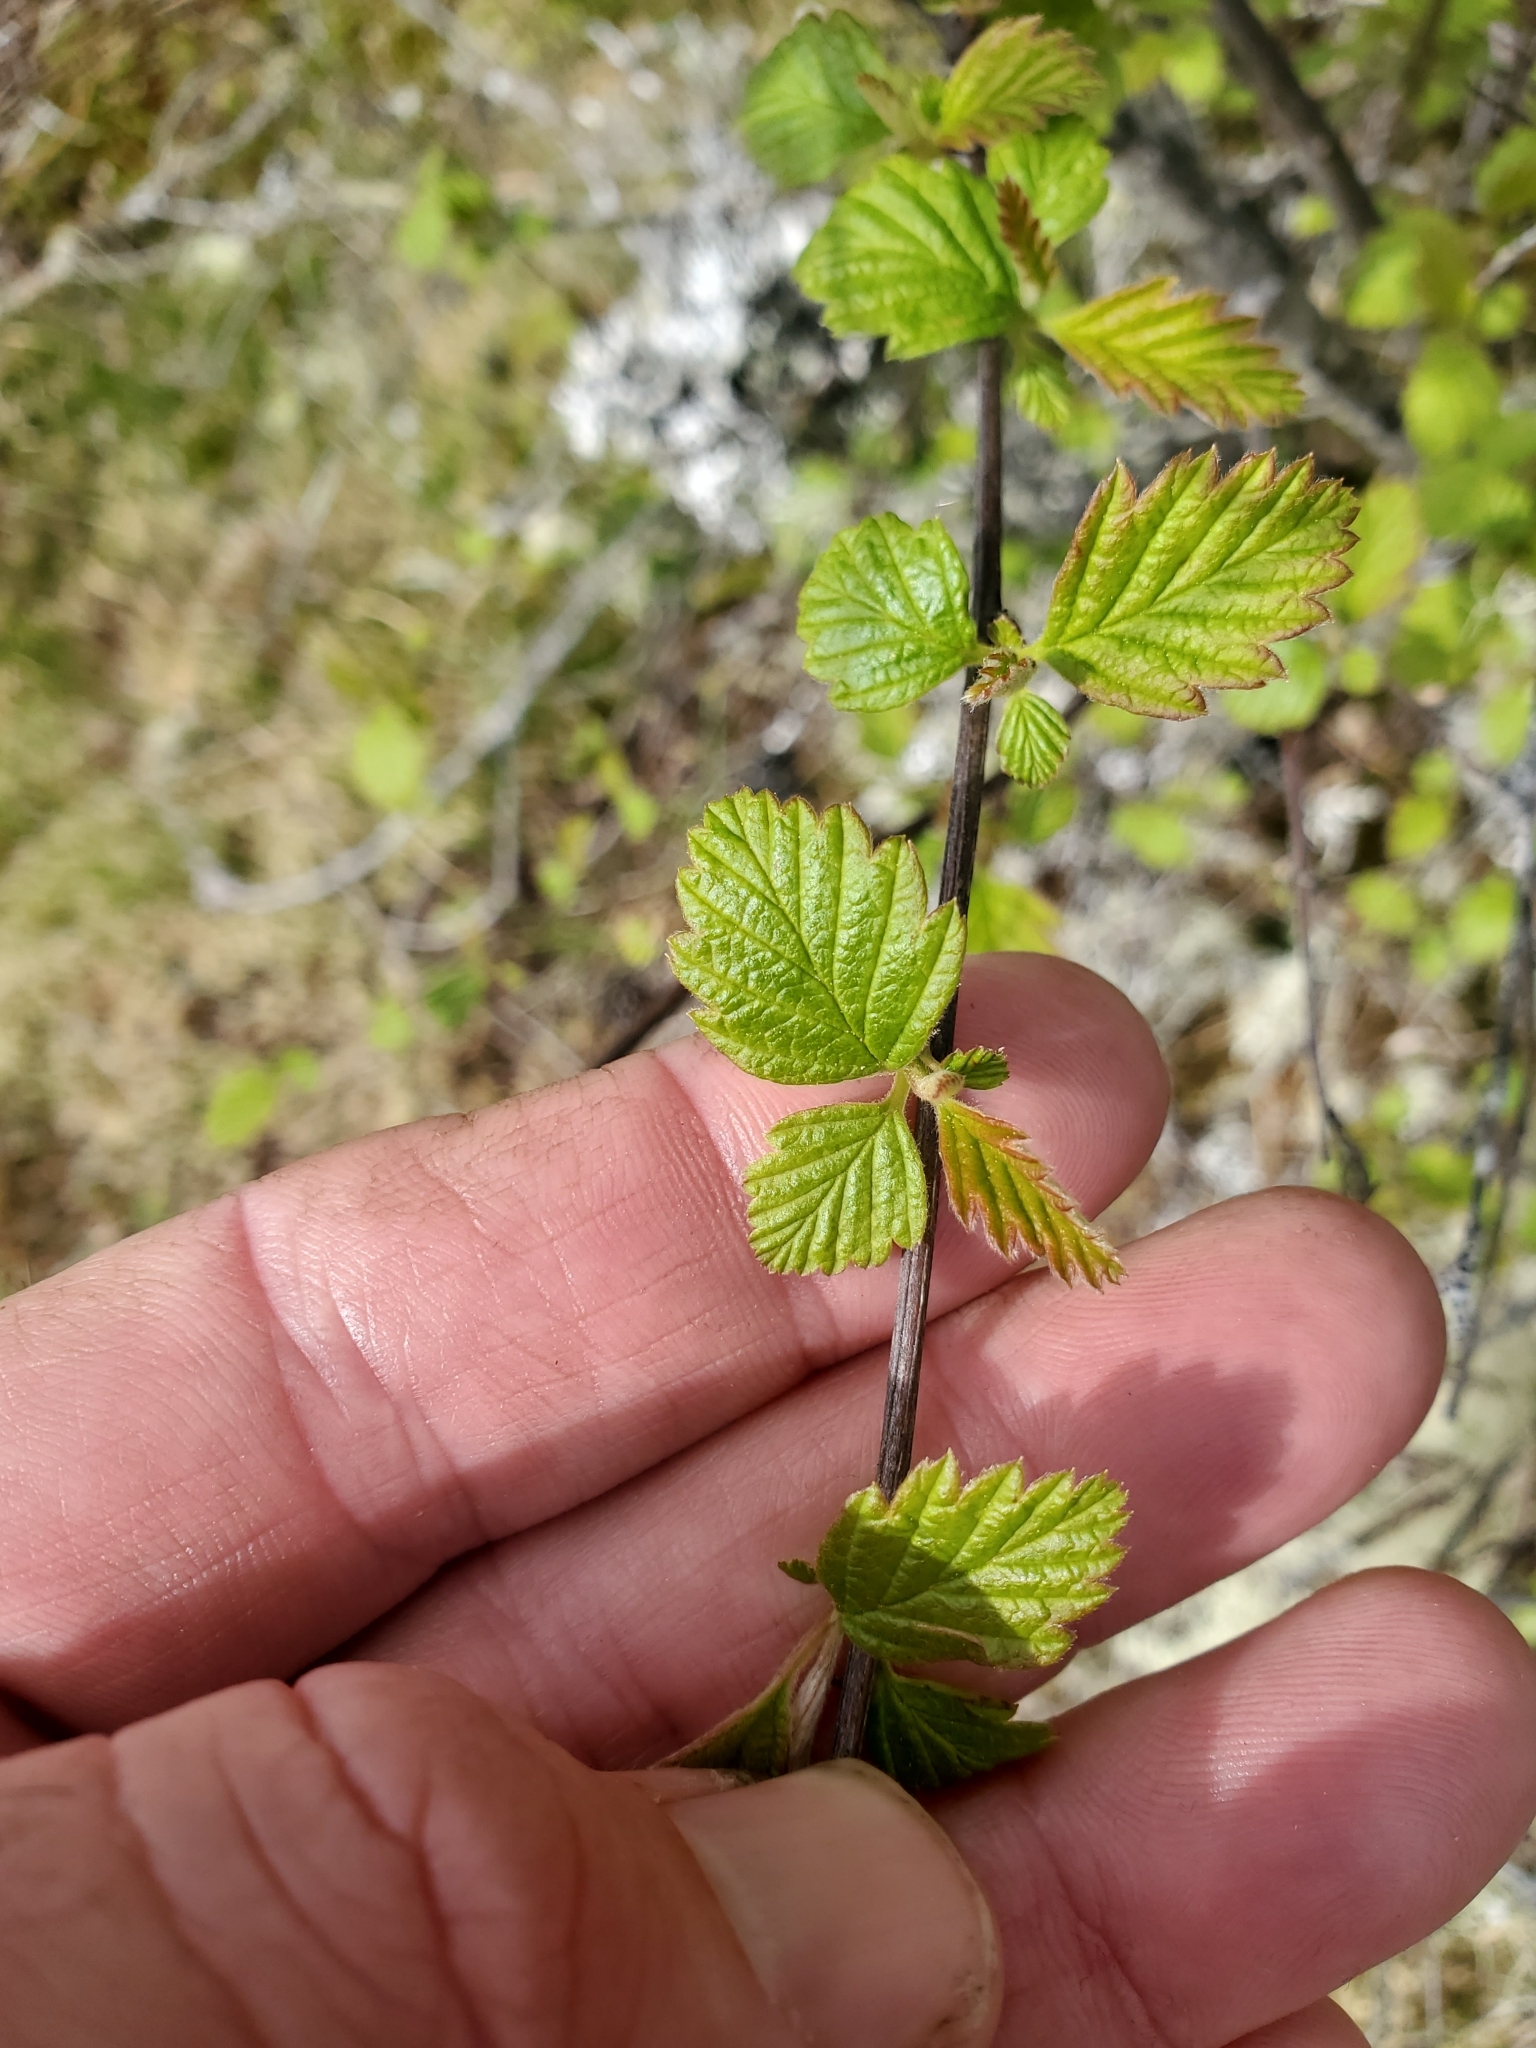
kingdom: Plantae
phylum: Tracheophyta
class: Magnoliopsida
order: Rosales
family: Rosaceae
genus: Holodiscus
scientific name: Holodiscus discolor
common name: Oceanspray
